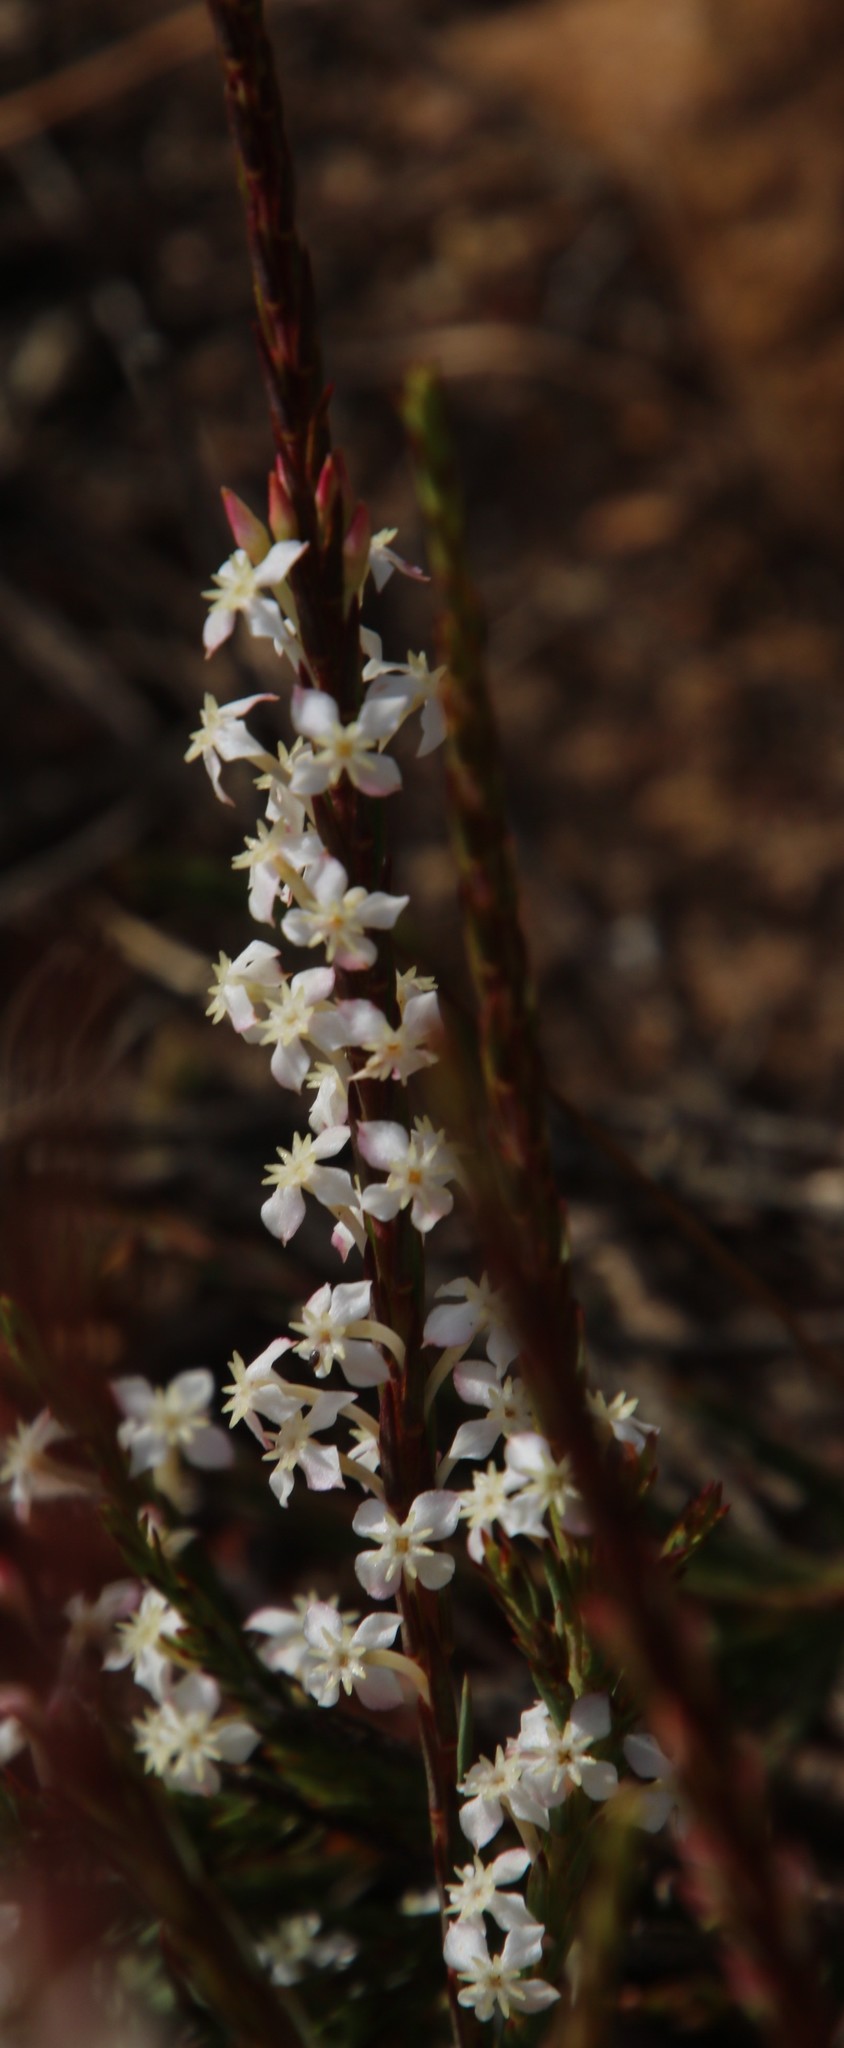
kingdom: Plantae
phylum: Tracheophyta
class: Magnoliopsida
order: Malvales
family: Thymelaeaceae
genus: Struthiola
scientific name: Struthiola dodecandra
